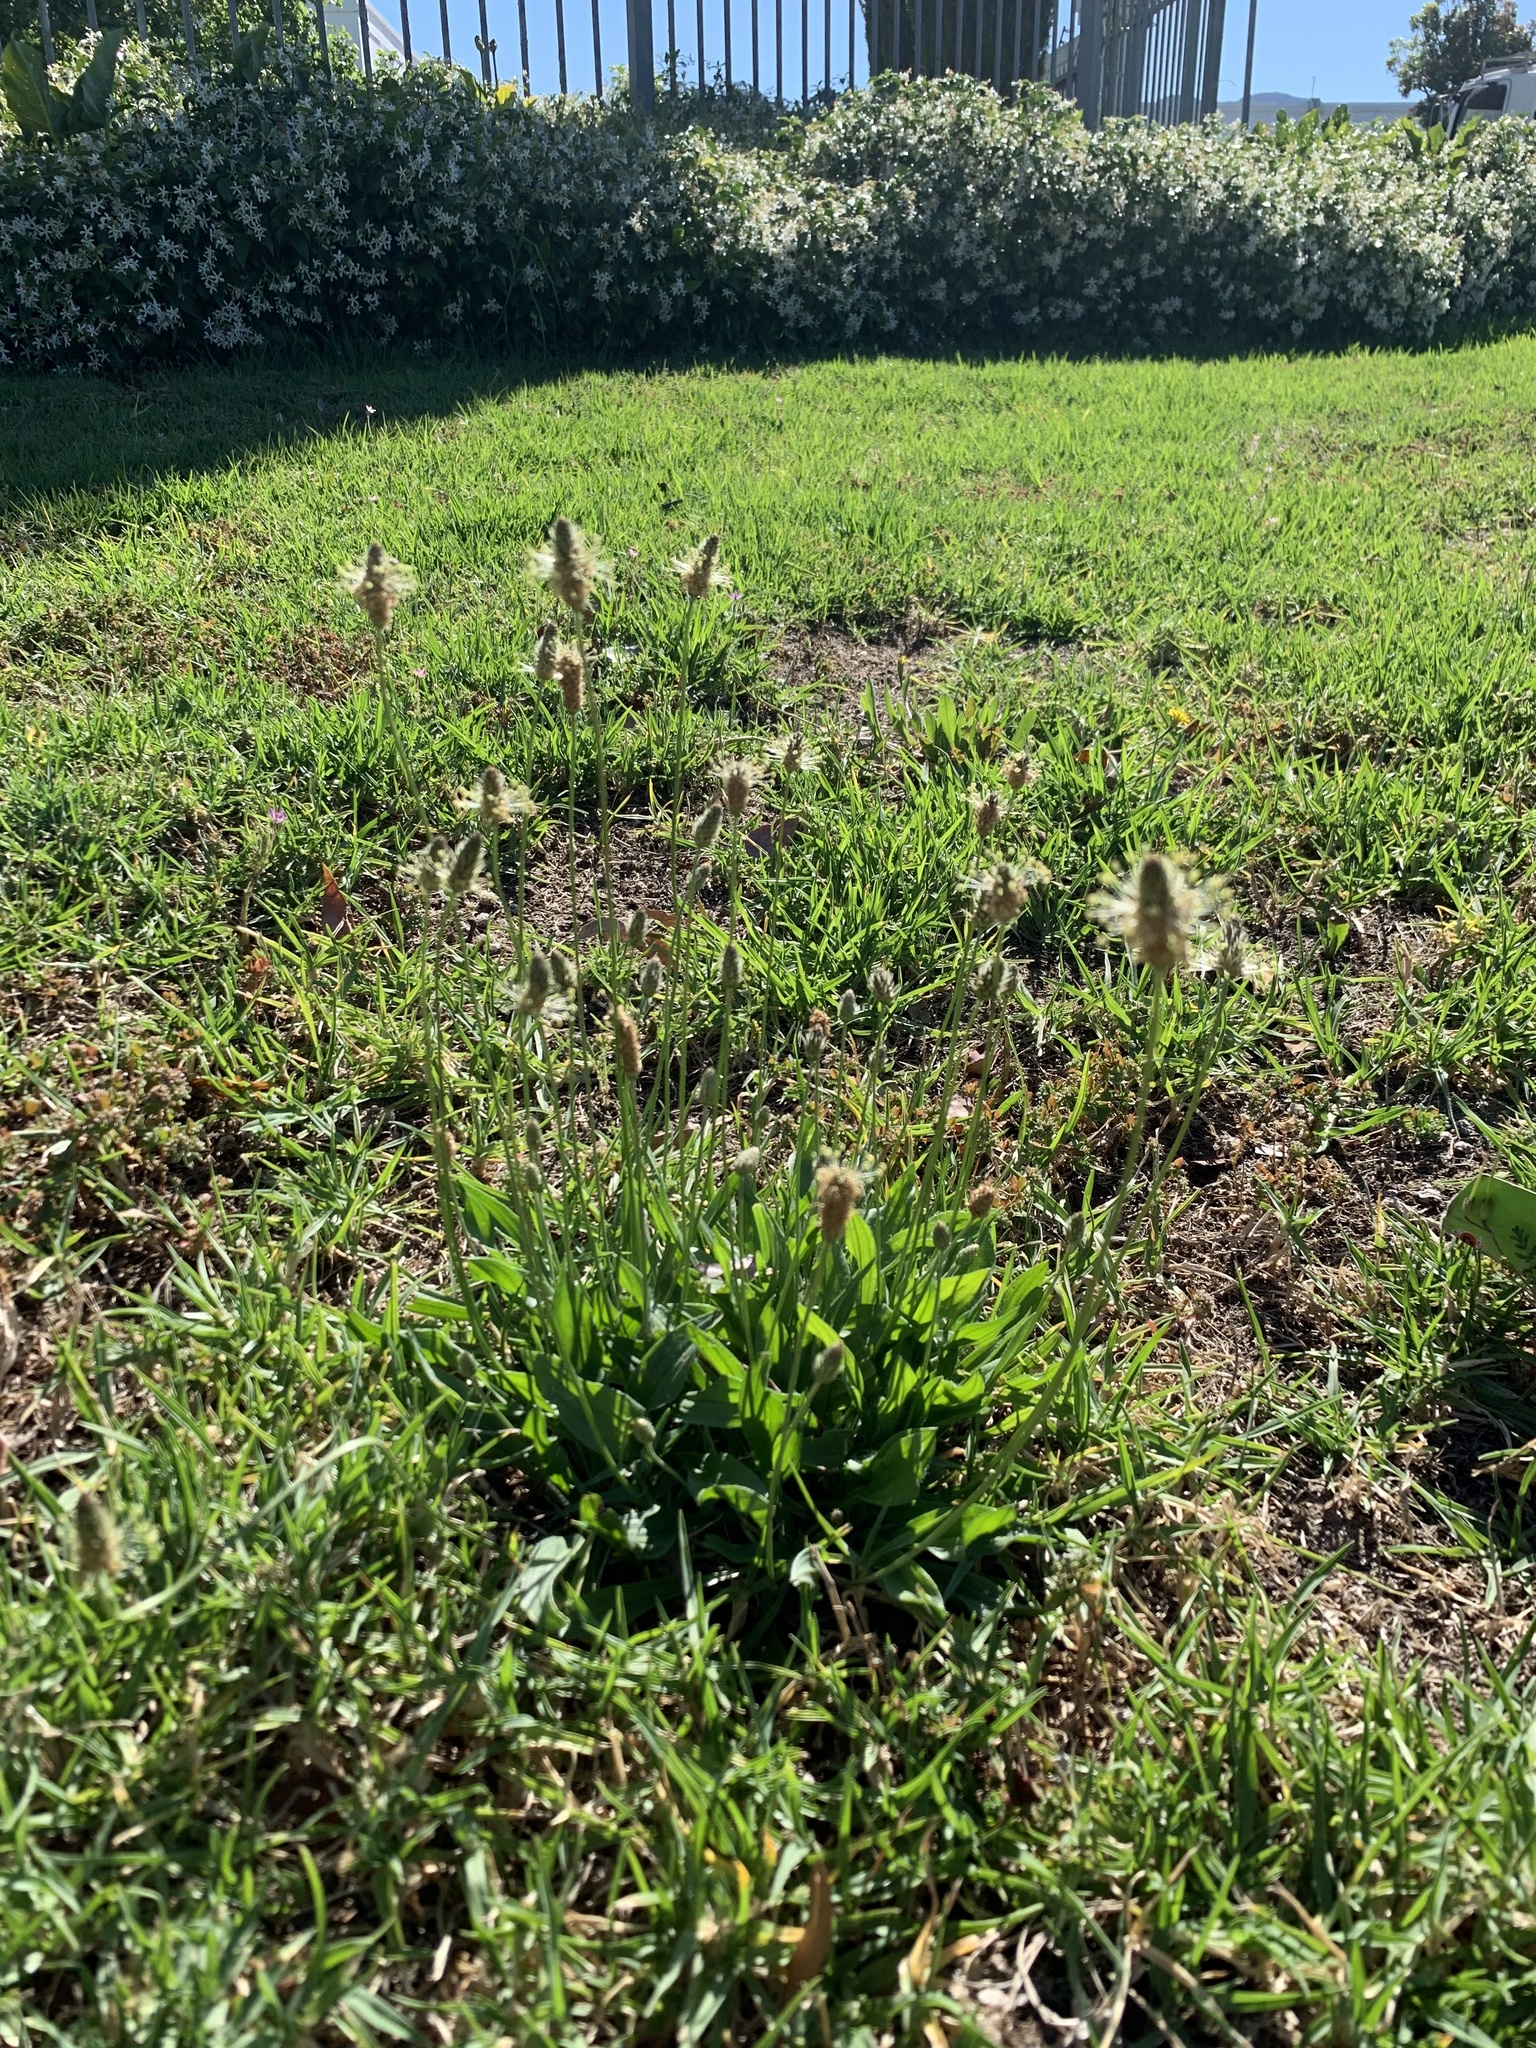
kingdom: Plantae
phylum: Tracheophyta
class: Magnoliopsida
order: Lamiales
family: Plantaginaceae
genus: Plantago
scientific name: Plantago lanceolata
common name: Ribwort plantain
